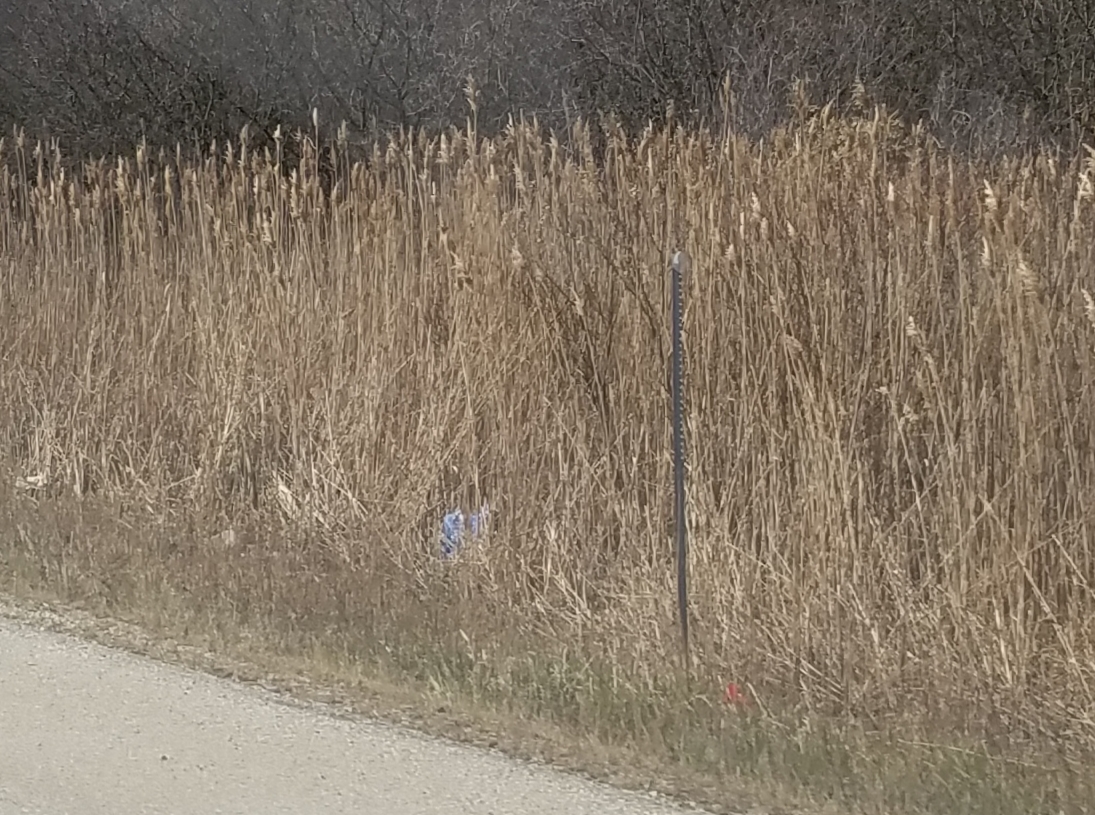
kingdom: Plantae
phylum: Tracheophyta
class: Liliopsida
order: Poales
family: Poaceae
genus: Phragmites
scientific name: Phragmites australis
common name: Common reed
